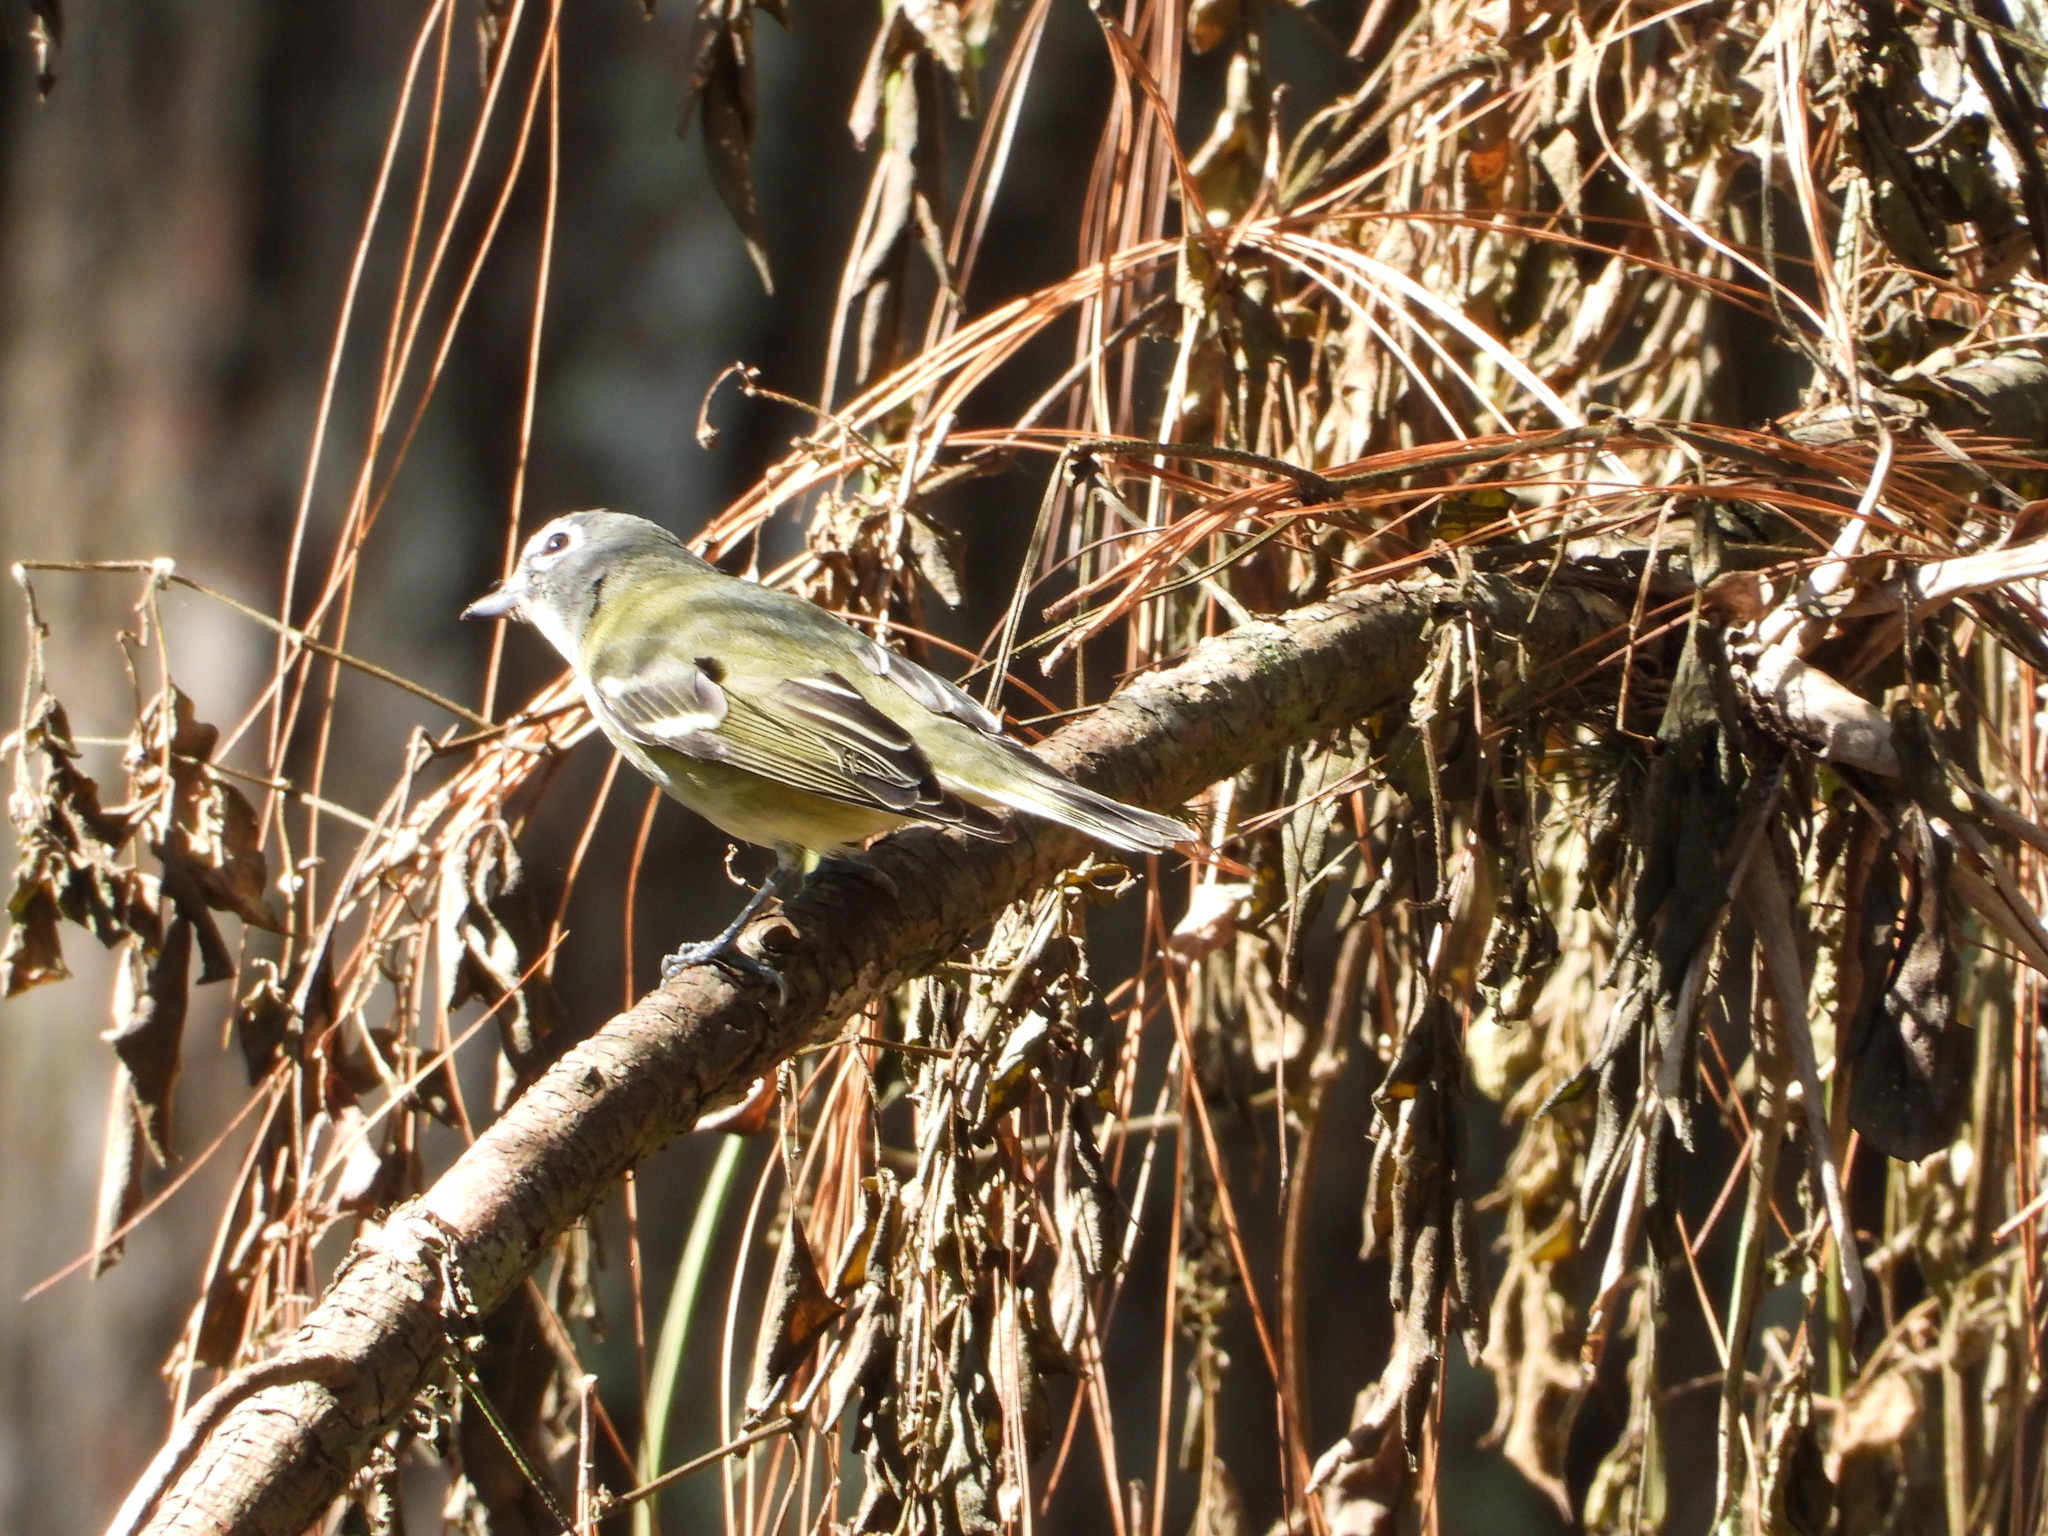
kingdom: Animalia
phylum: Chordata
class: Aves
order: Passeriformes
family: Vireonidae
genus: Vireo
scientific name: Vireo solitarius
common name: Blue-headed vireo
